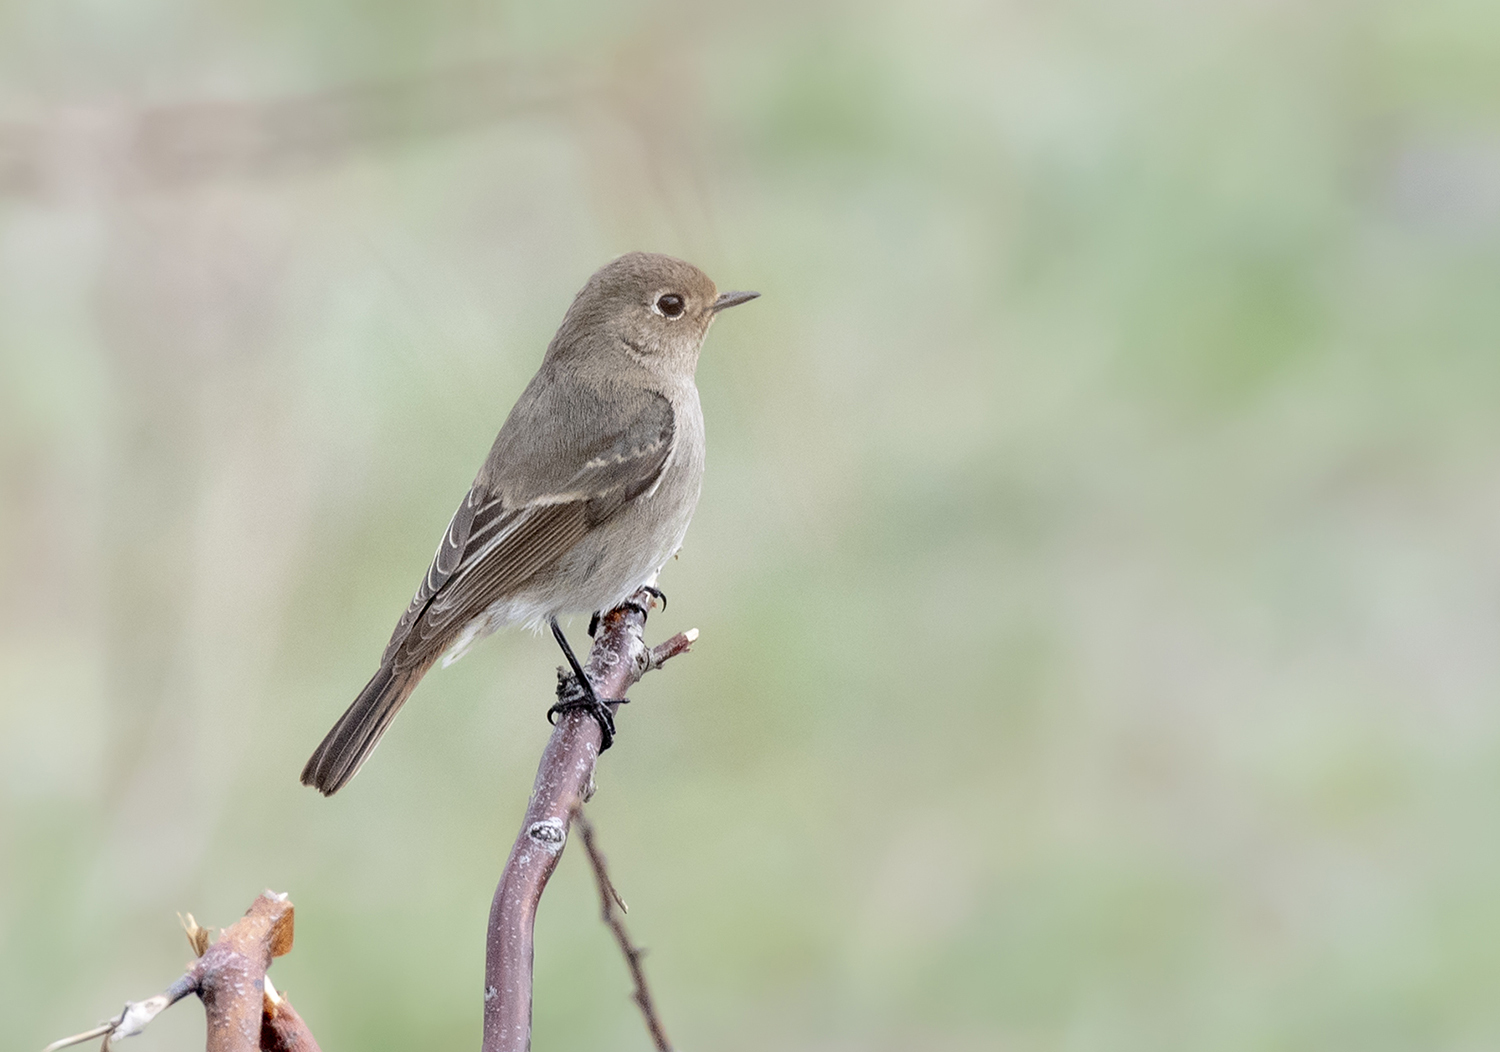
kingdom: Animalia
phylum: Chordata
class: Aves
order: Passeriformes
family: Muscicapidae
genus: Phoenicurus
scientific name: Phoenicurus coeruleocephala
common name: Blue-capped redstart
